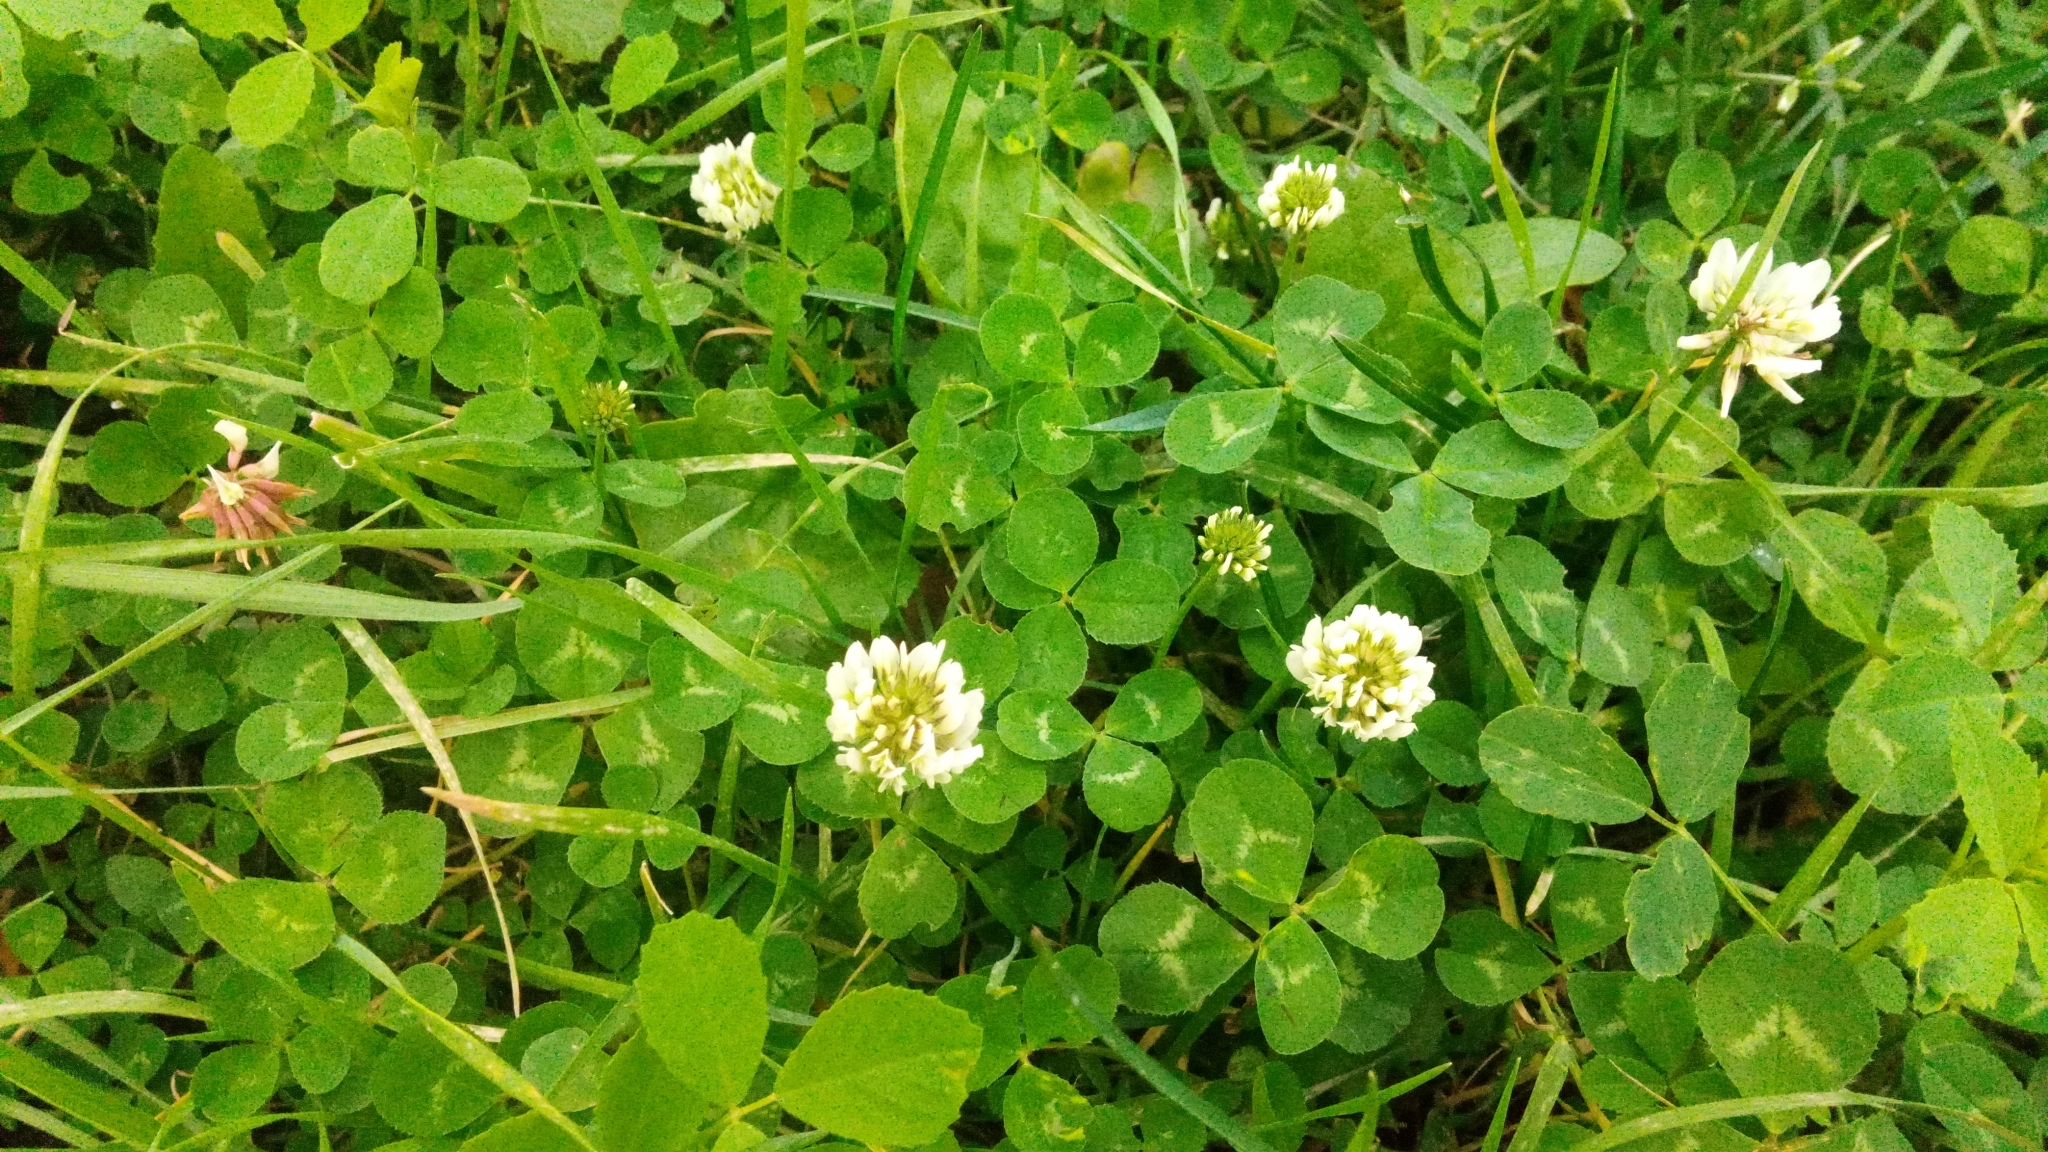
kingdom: Plantae
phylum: Tracheophyta
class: Magnoliopsida
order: Fabales
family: Fabaceae
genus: Trifolium
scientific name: Trifolium repens
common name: White clover
